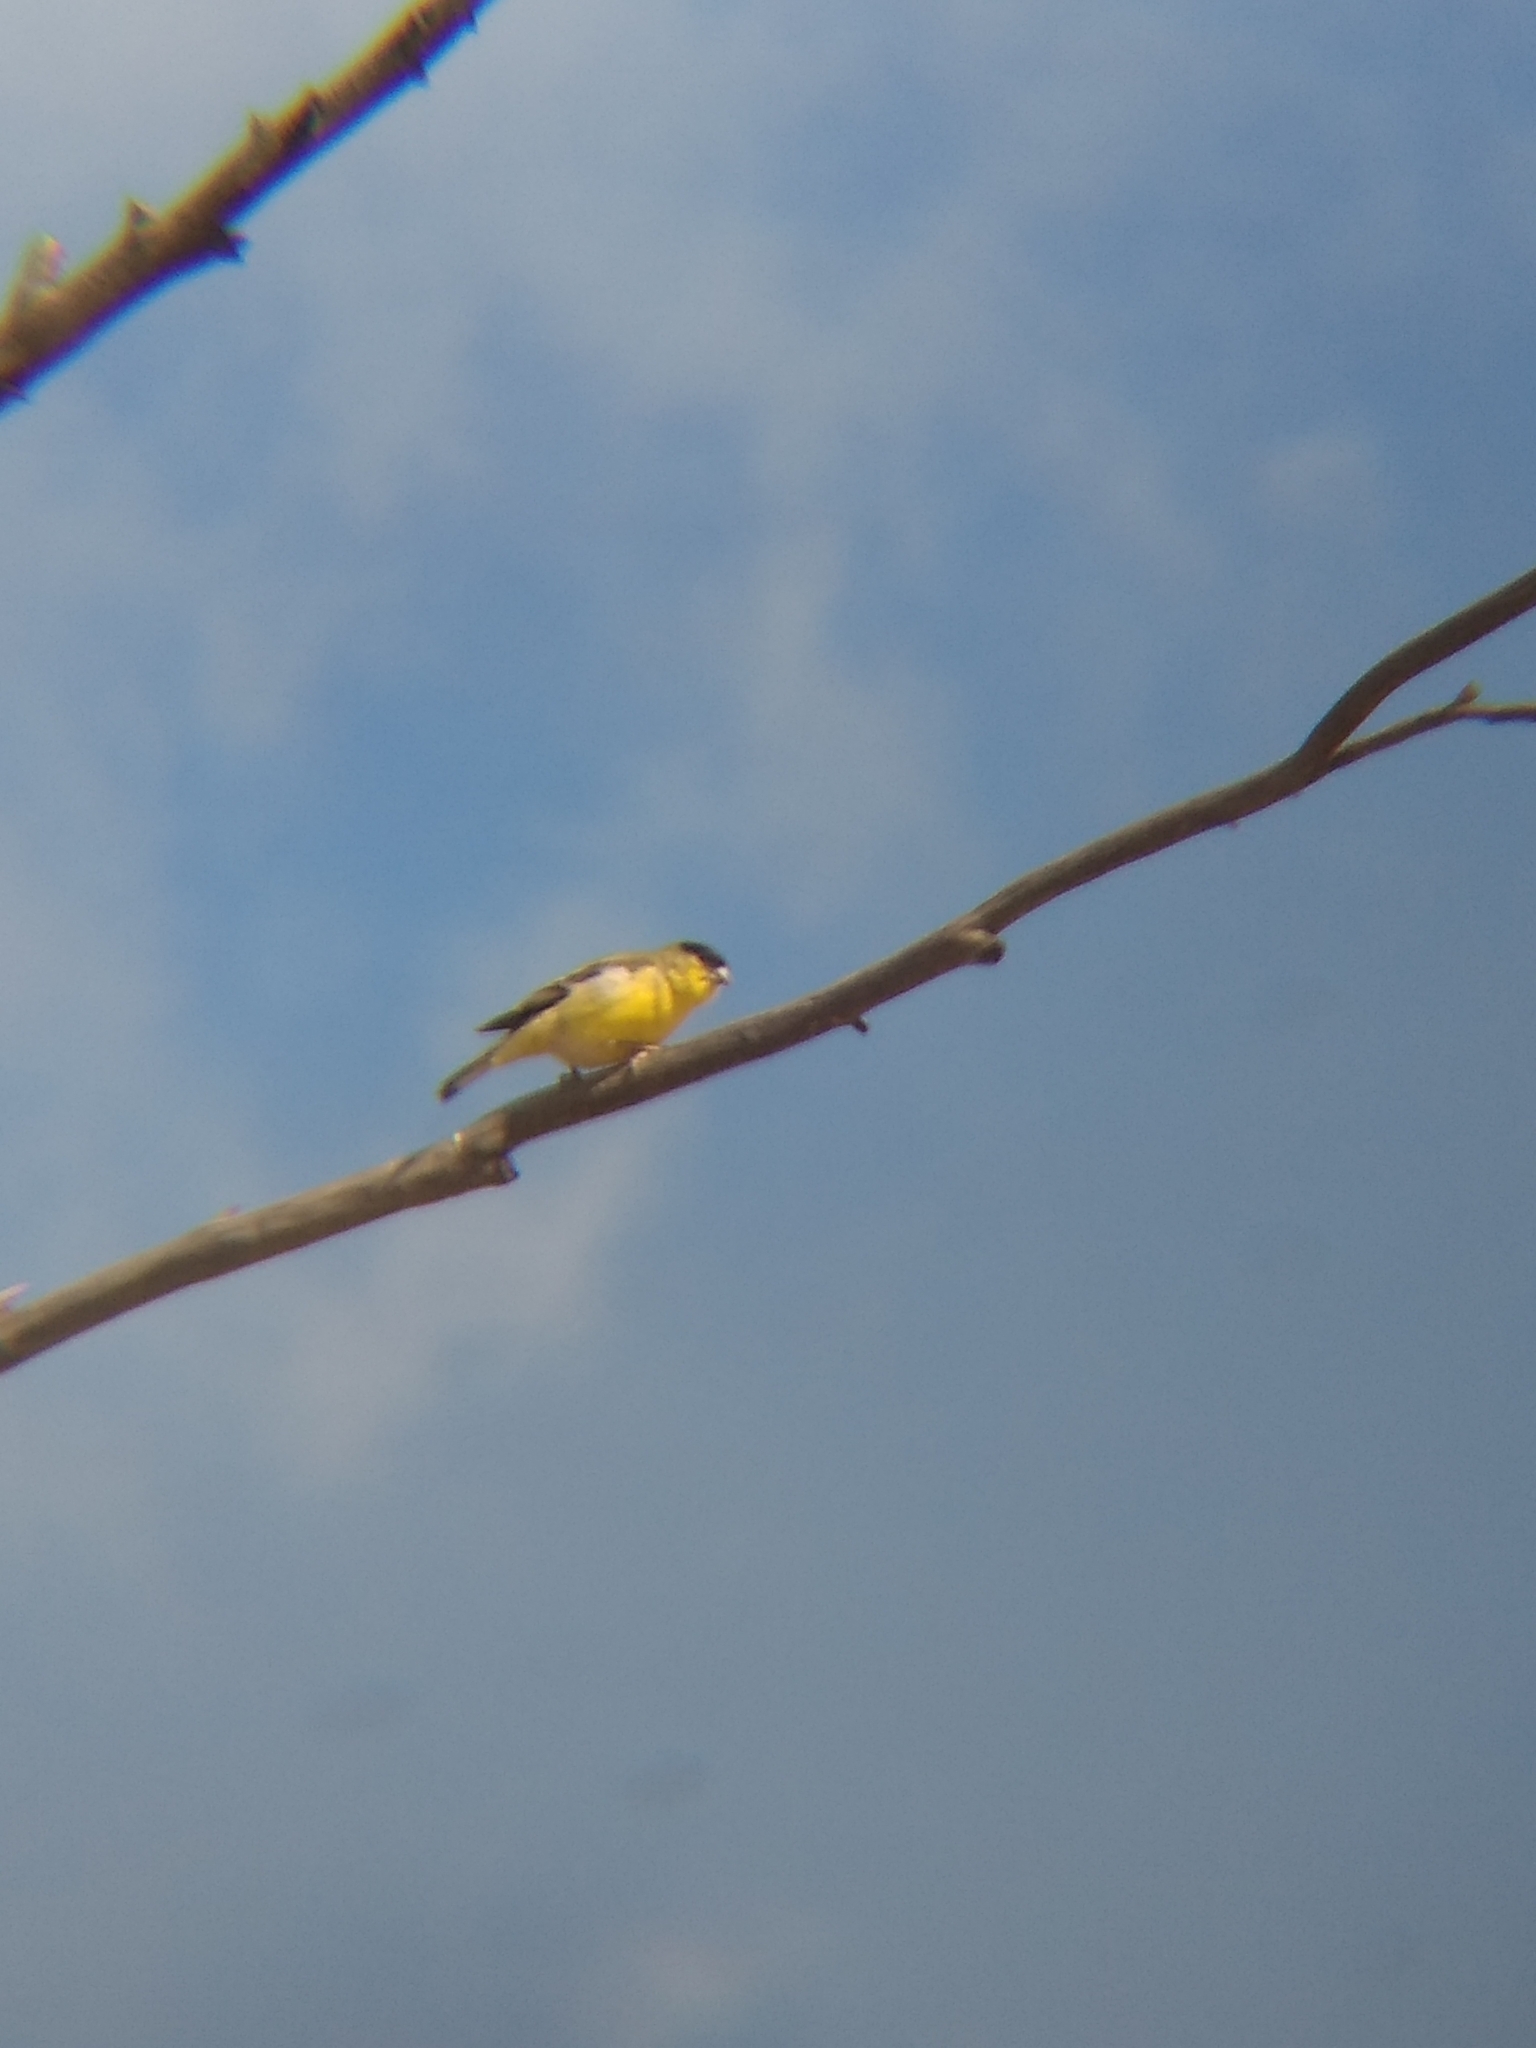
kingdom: Animalia
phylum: Chordata
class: Aves
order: Passeriformes
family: Fringillidae
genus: Spinus
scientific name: Spinus psaltria
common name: Lesser goldfinch
